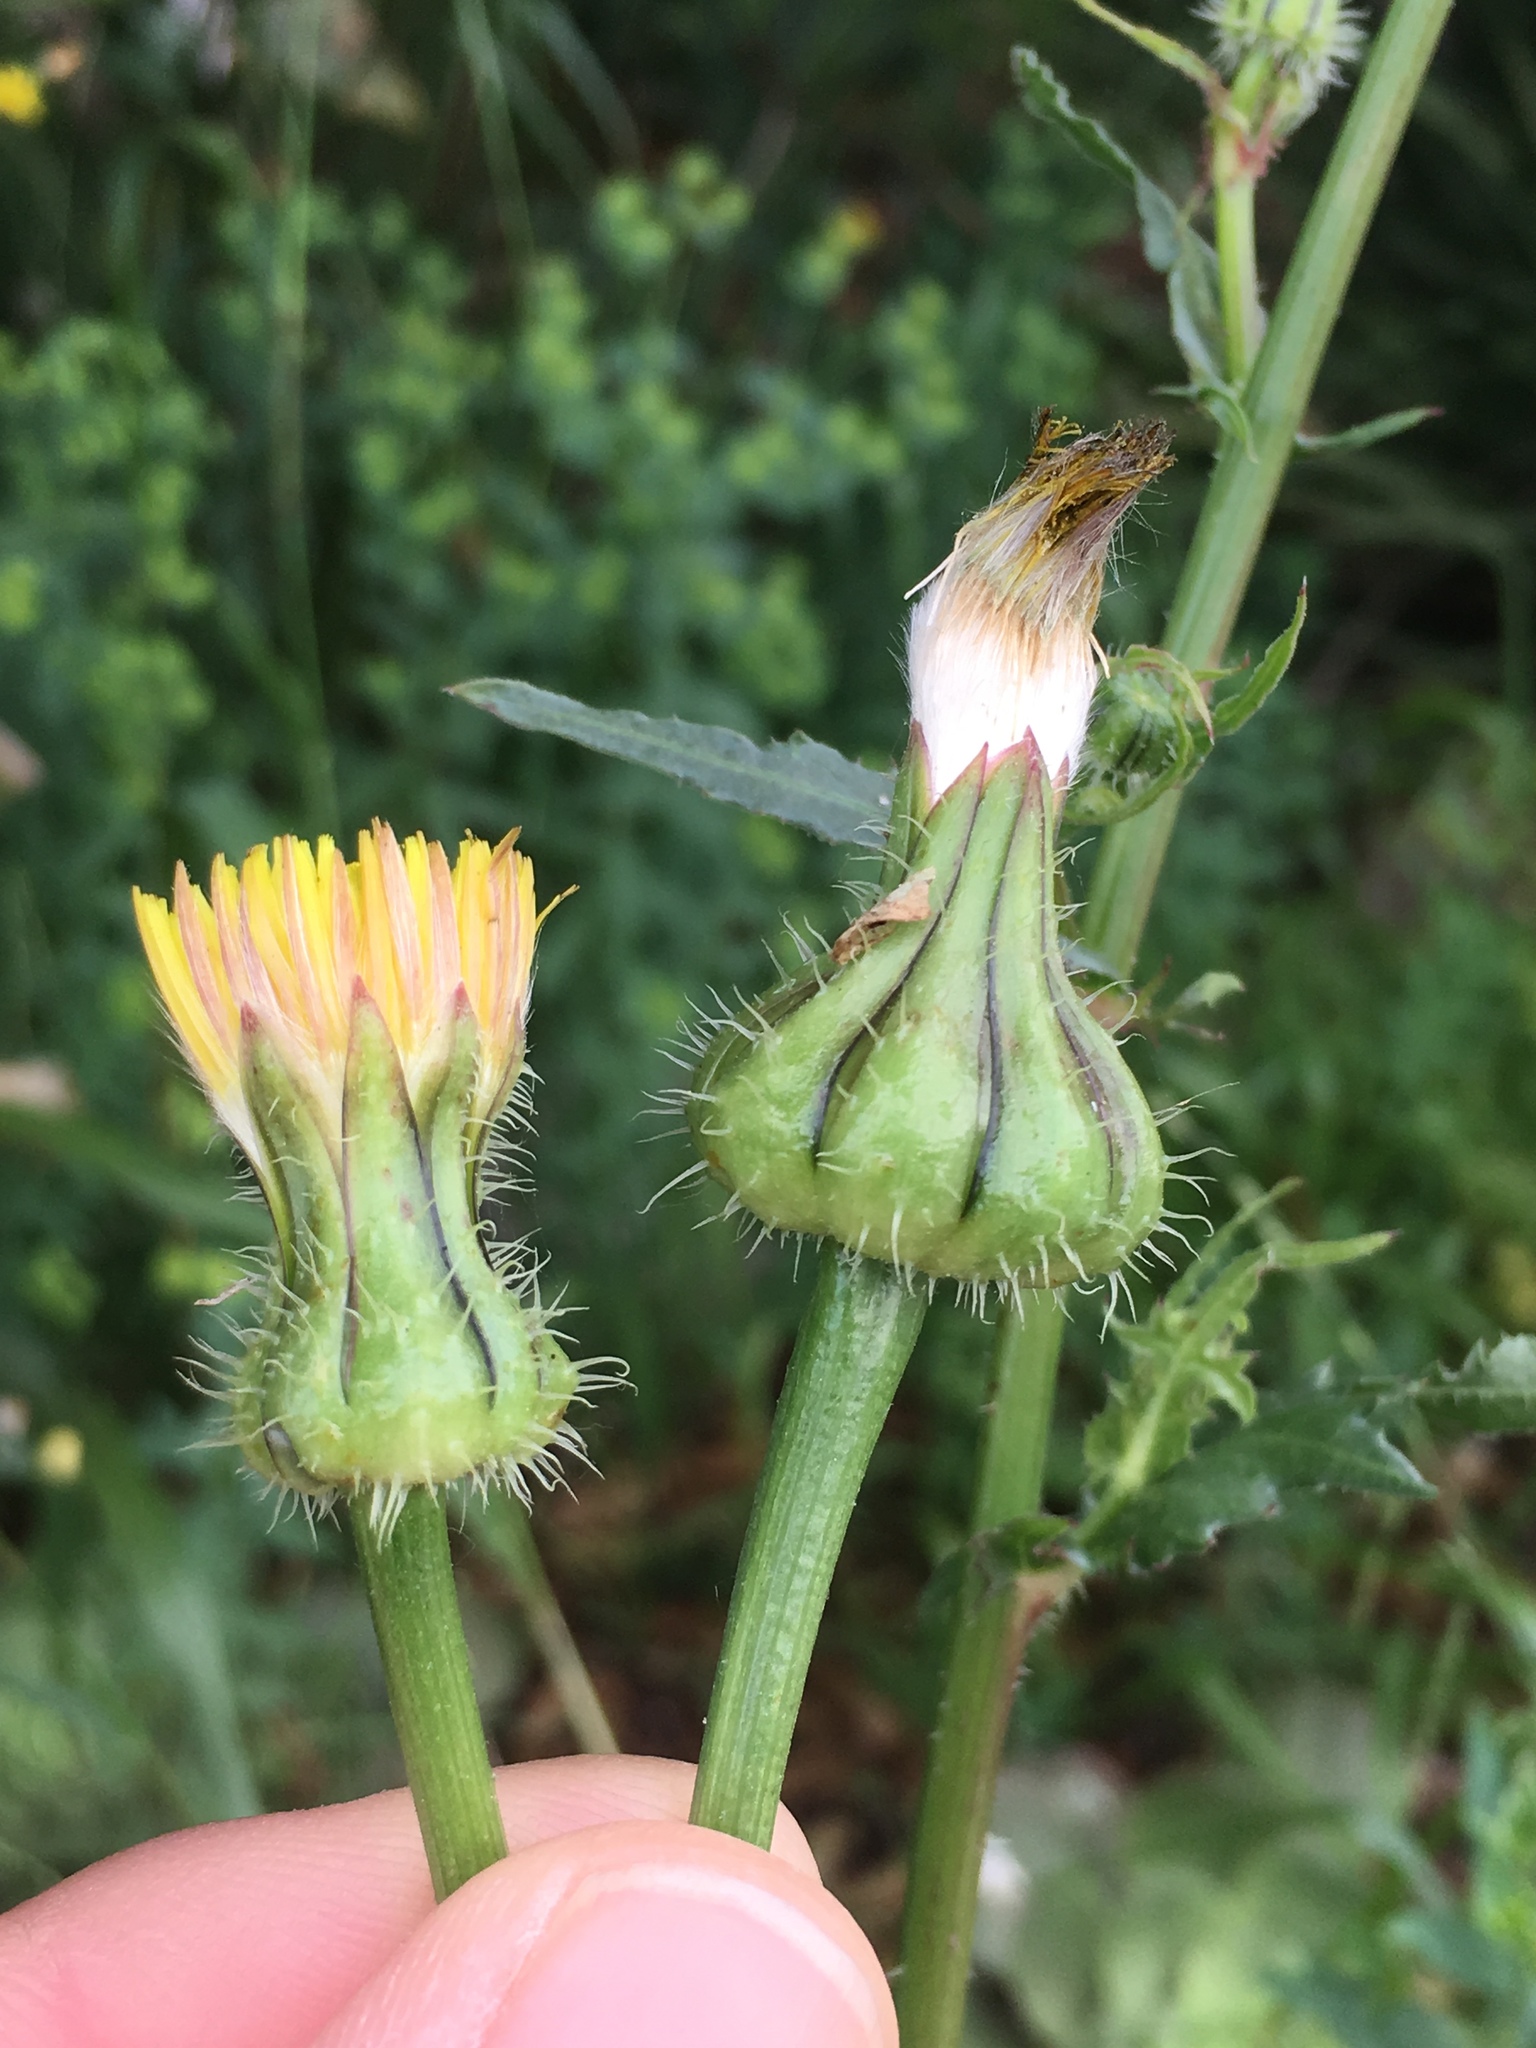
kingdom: Plantae
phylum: Tracheophyta
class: Magnoliopsida
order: Asterales
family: Asteraceae
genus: Urospermum
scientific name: Urospermum picroides
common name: False hawkbit
